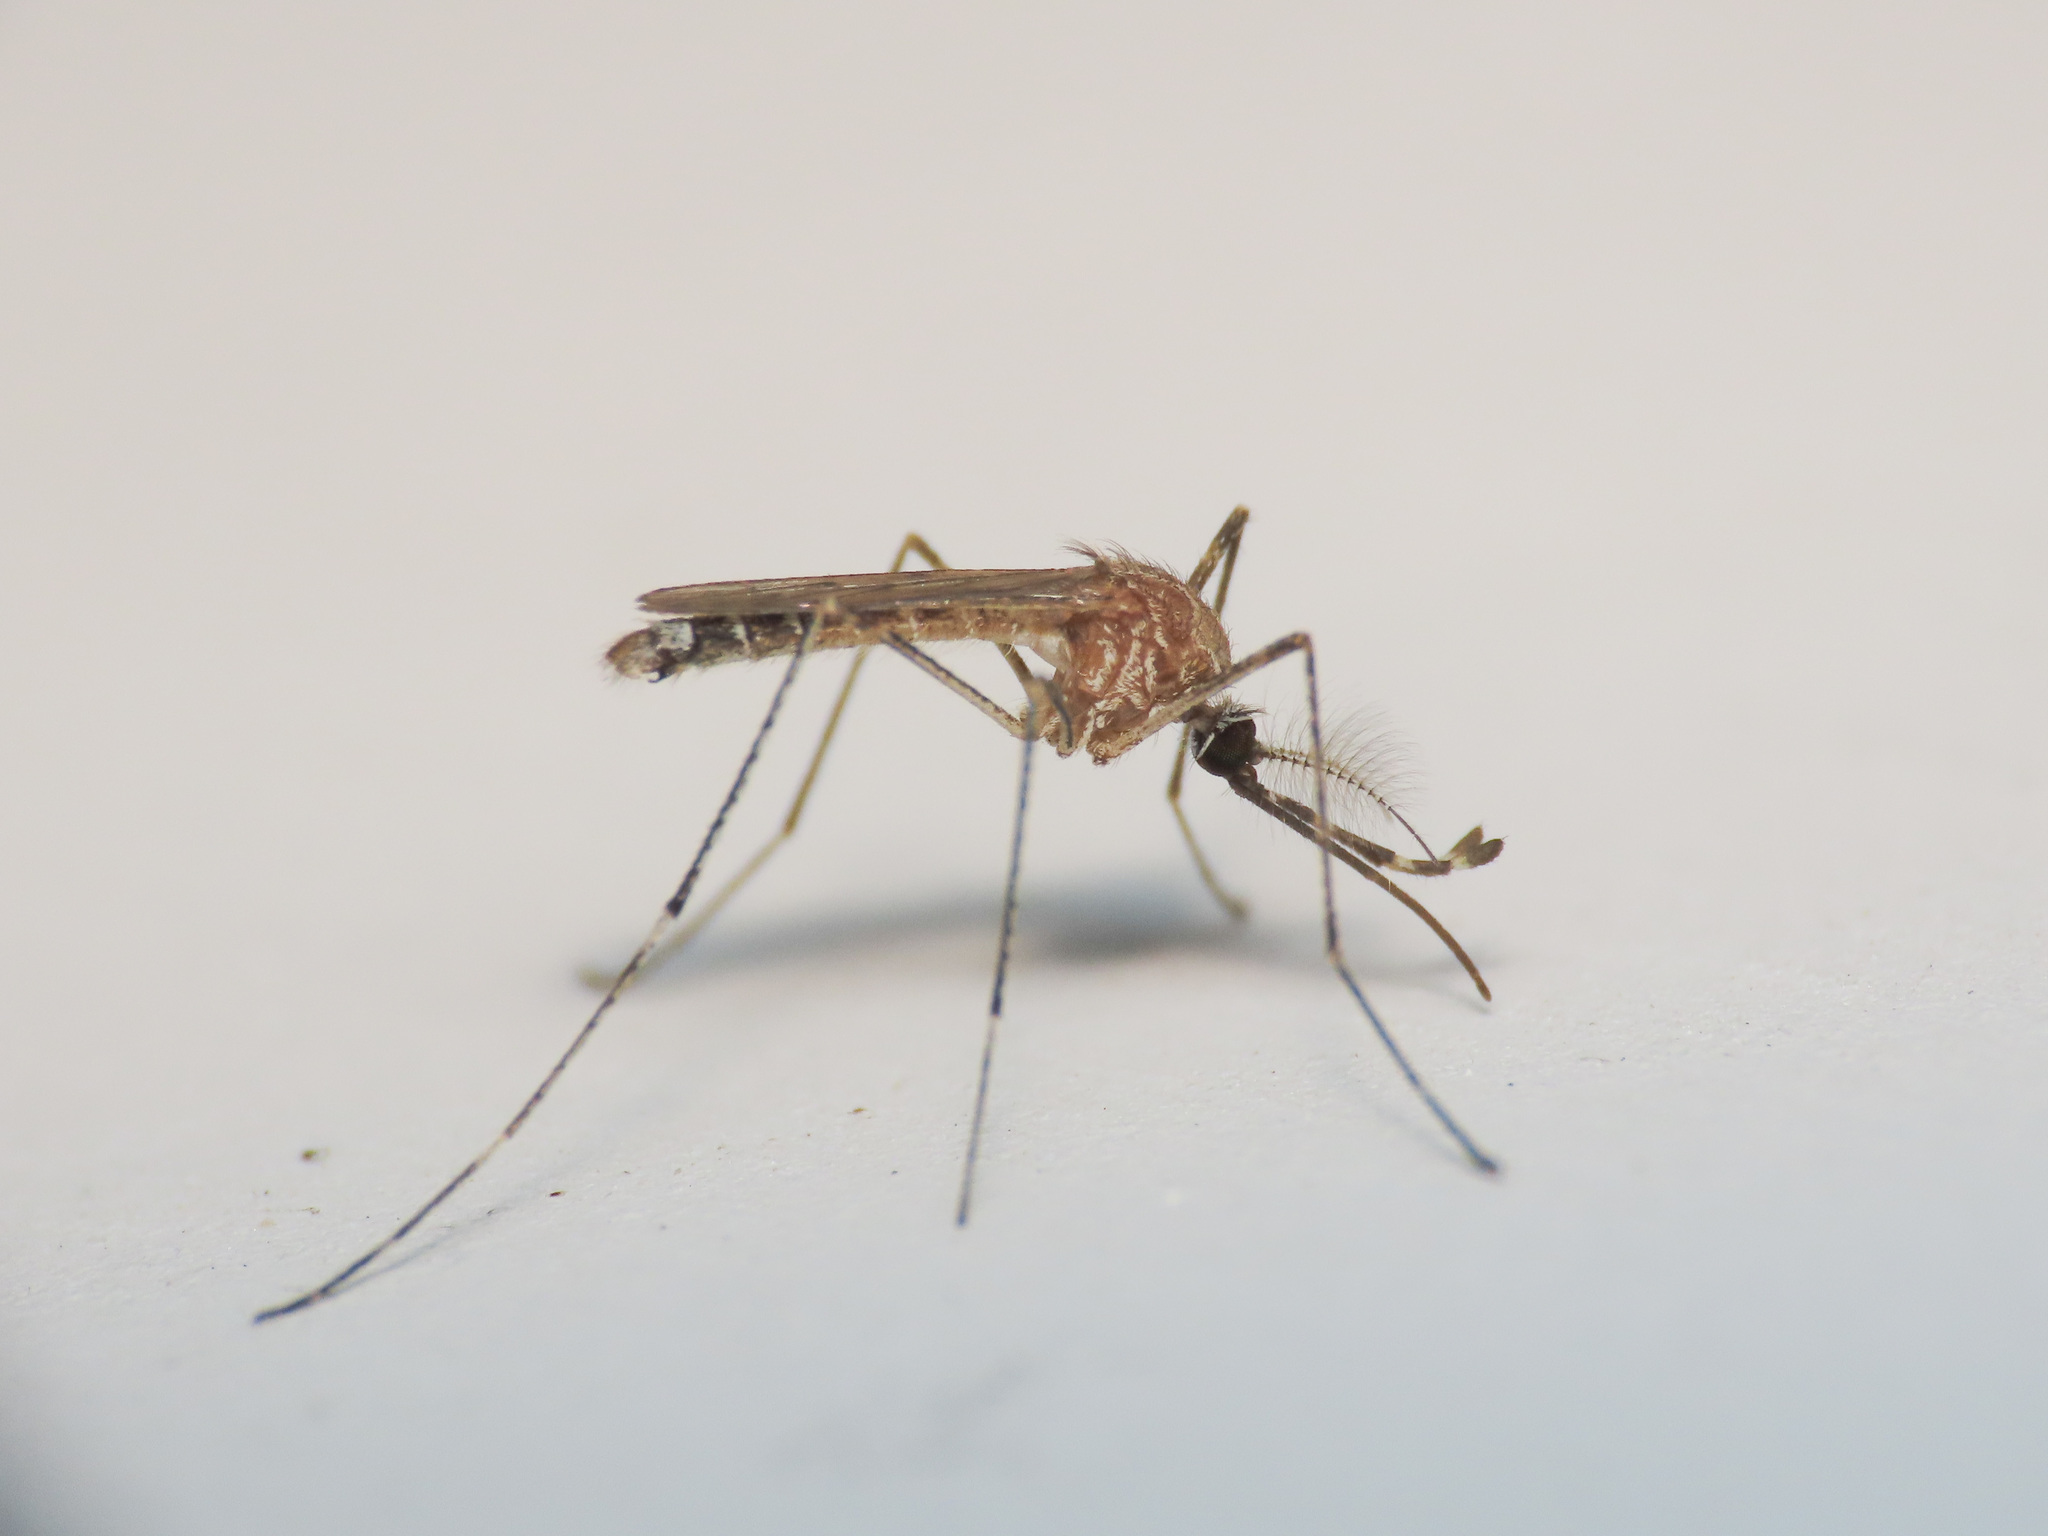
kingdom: Animalia
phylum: Arthropoda
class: Insecta
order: Diptera
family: Culicidae
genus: Culiseta
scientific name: Culiseta longiareolata
